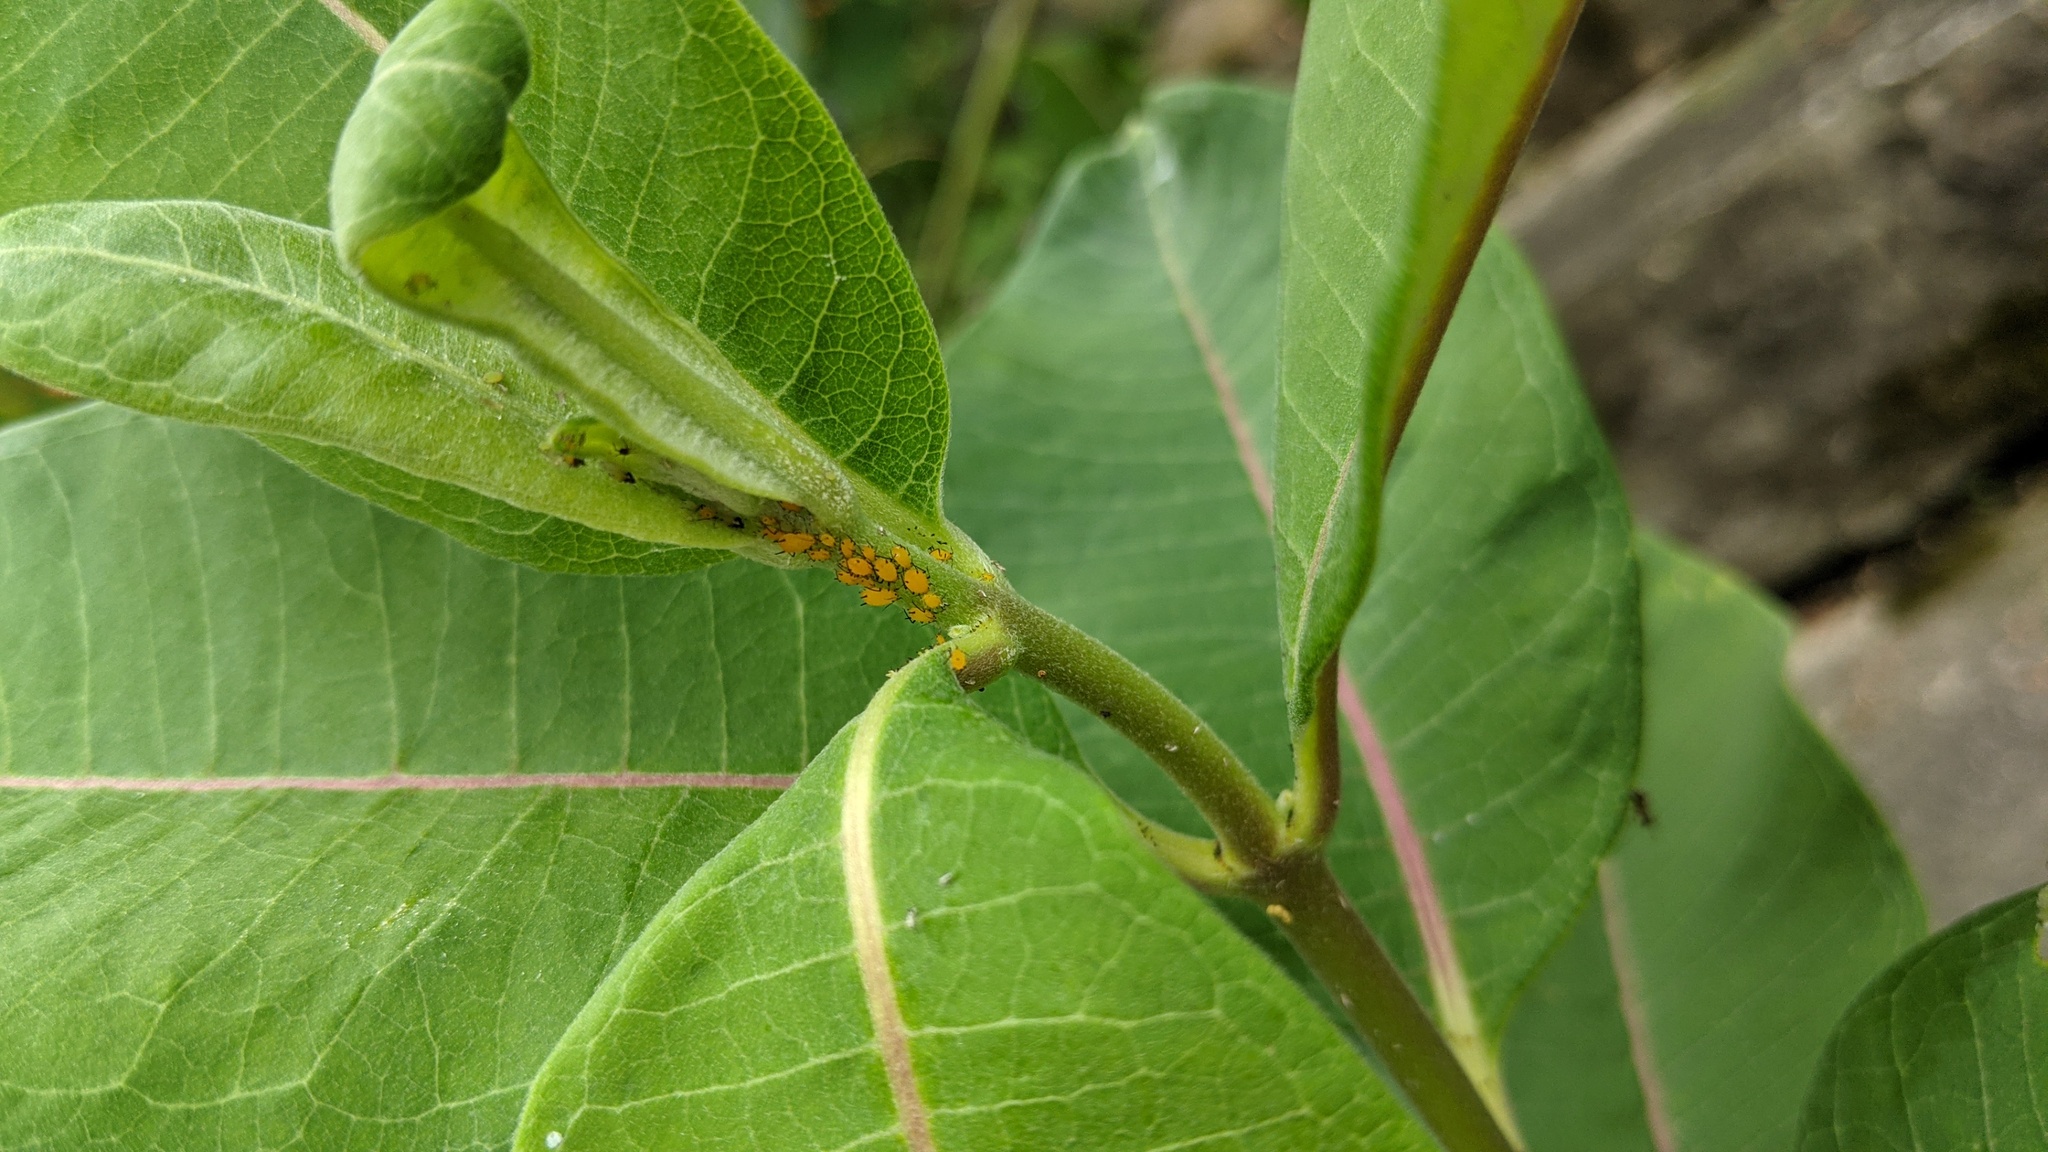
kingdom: Animalia
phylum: Arthropoda
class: Insecta
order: Hemiptera
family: Aphididae
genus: Aphis
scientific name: Aphis nerii
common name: Oleander aphid
